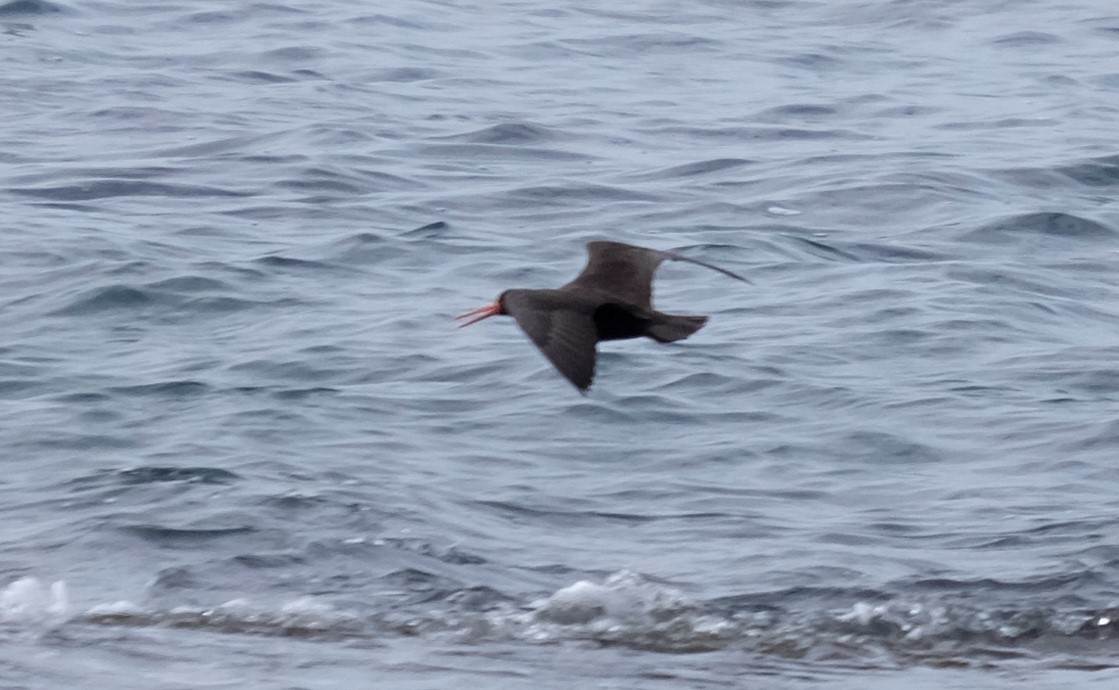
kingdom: Animalia
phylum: Chordata
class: Aves
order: Charadriiformes
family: Haematopodidae
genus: Haematopus
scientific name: Haematopus fuliginosus
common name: Sooty oystercatcher
